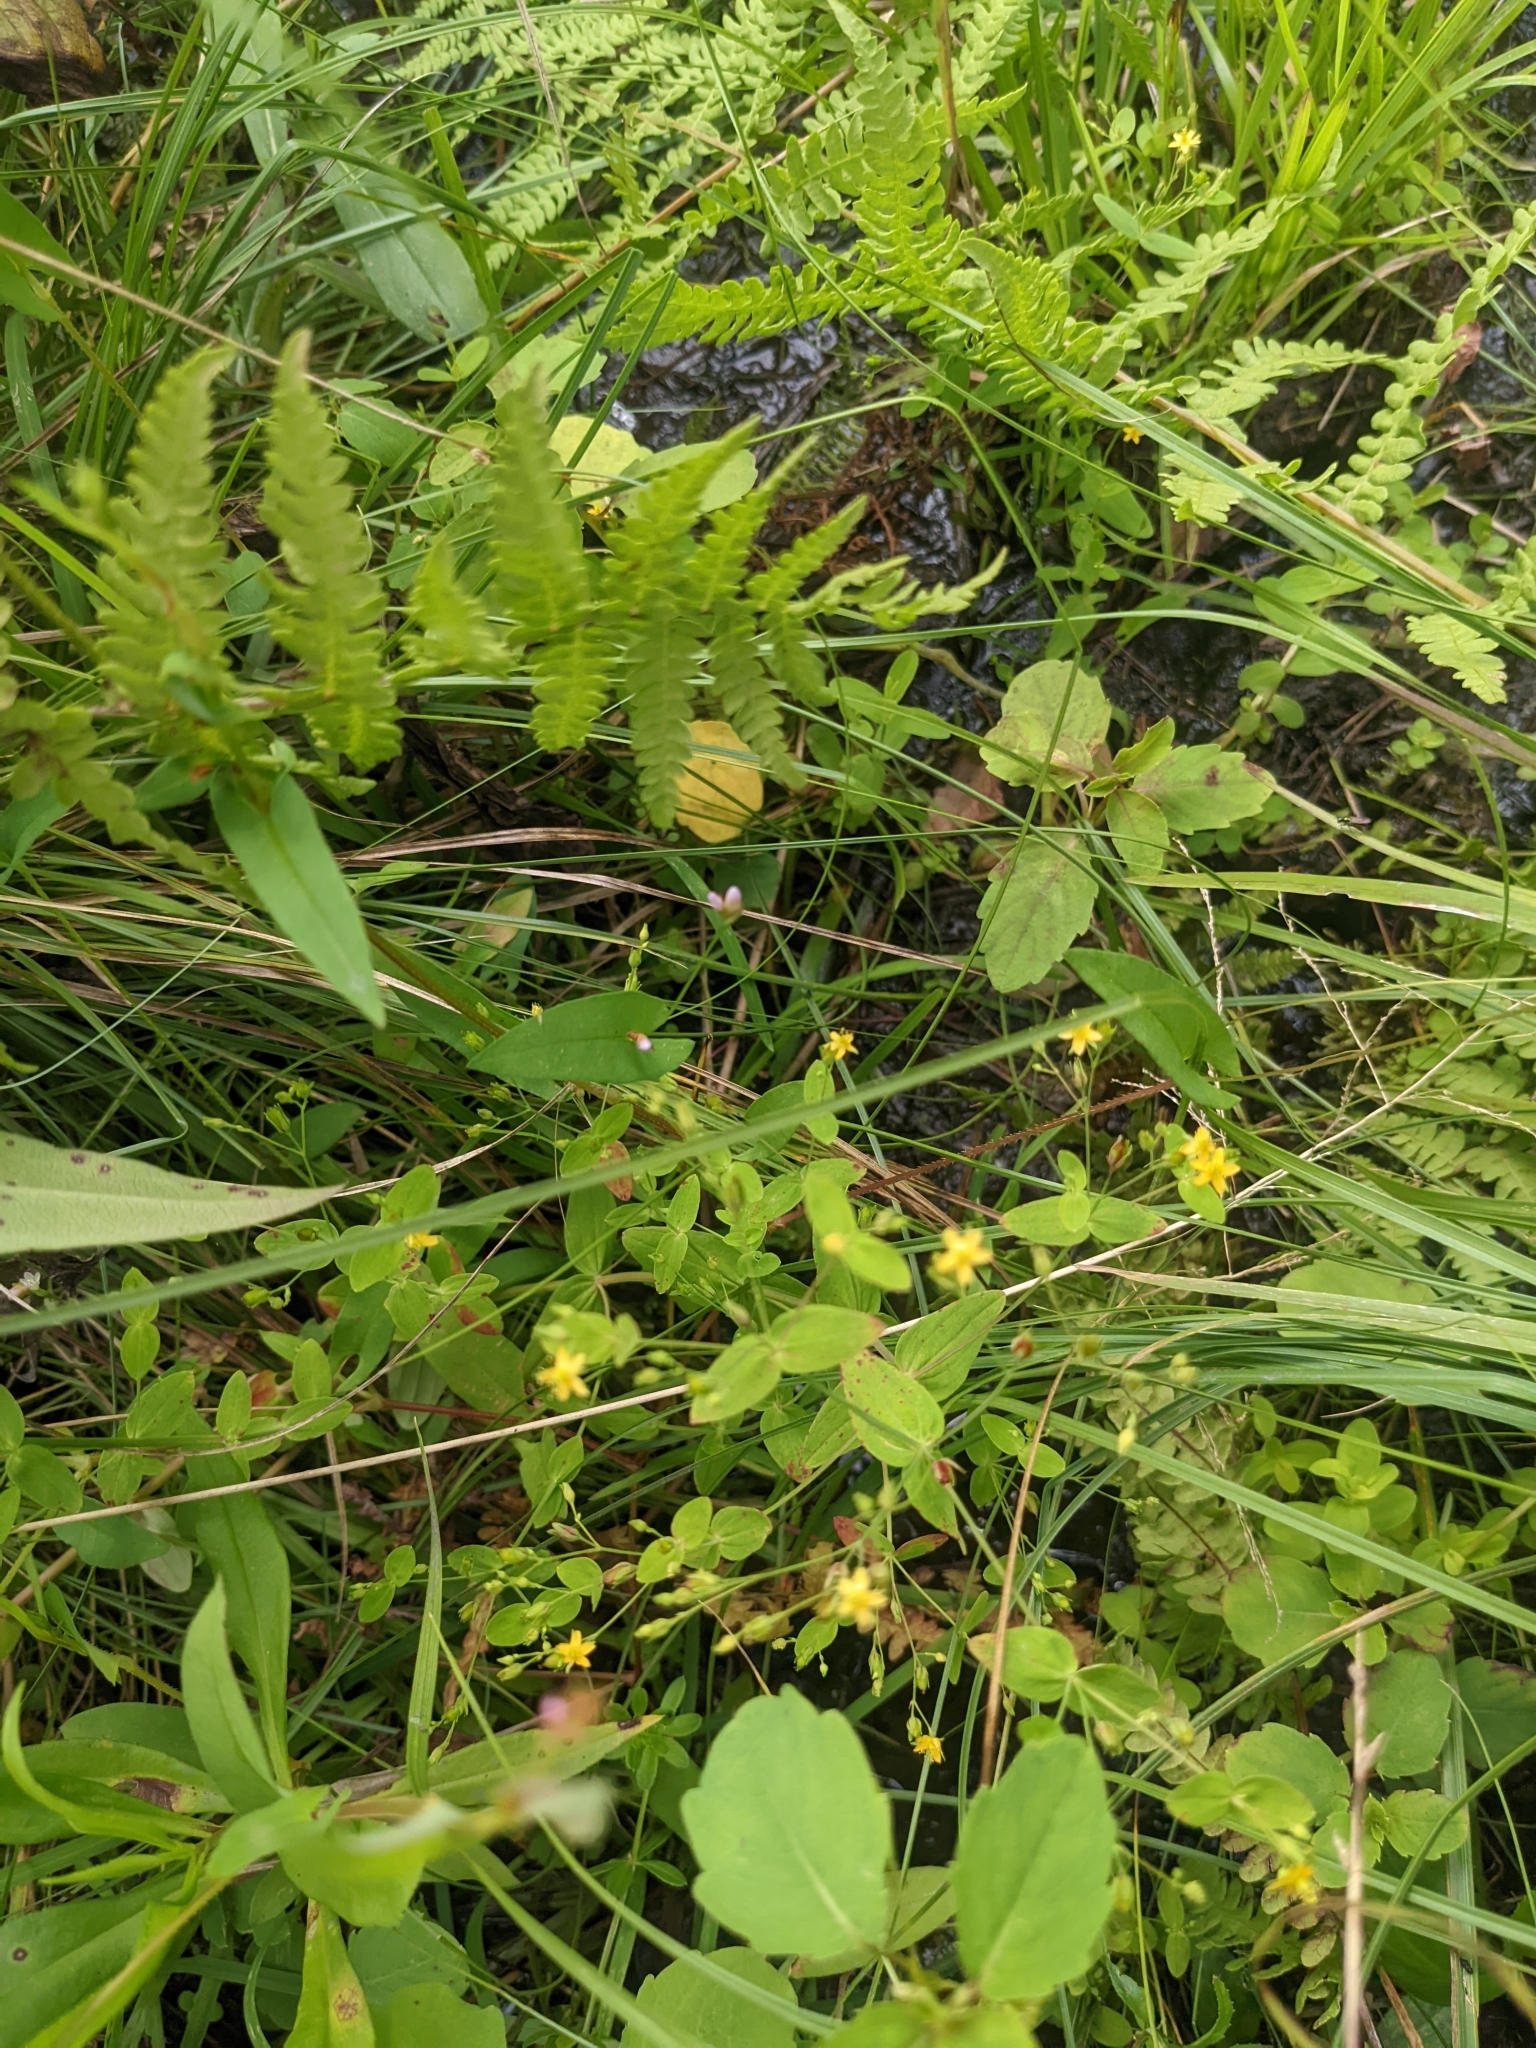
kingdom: Plantae
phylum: Tracheophyta
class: Magnoliopsida
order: Malpighiales
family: Hypericaceae
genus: Hypericum
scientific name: Hypericum mutilum
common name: Dwarf st. john's-wort
